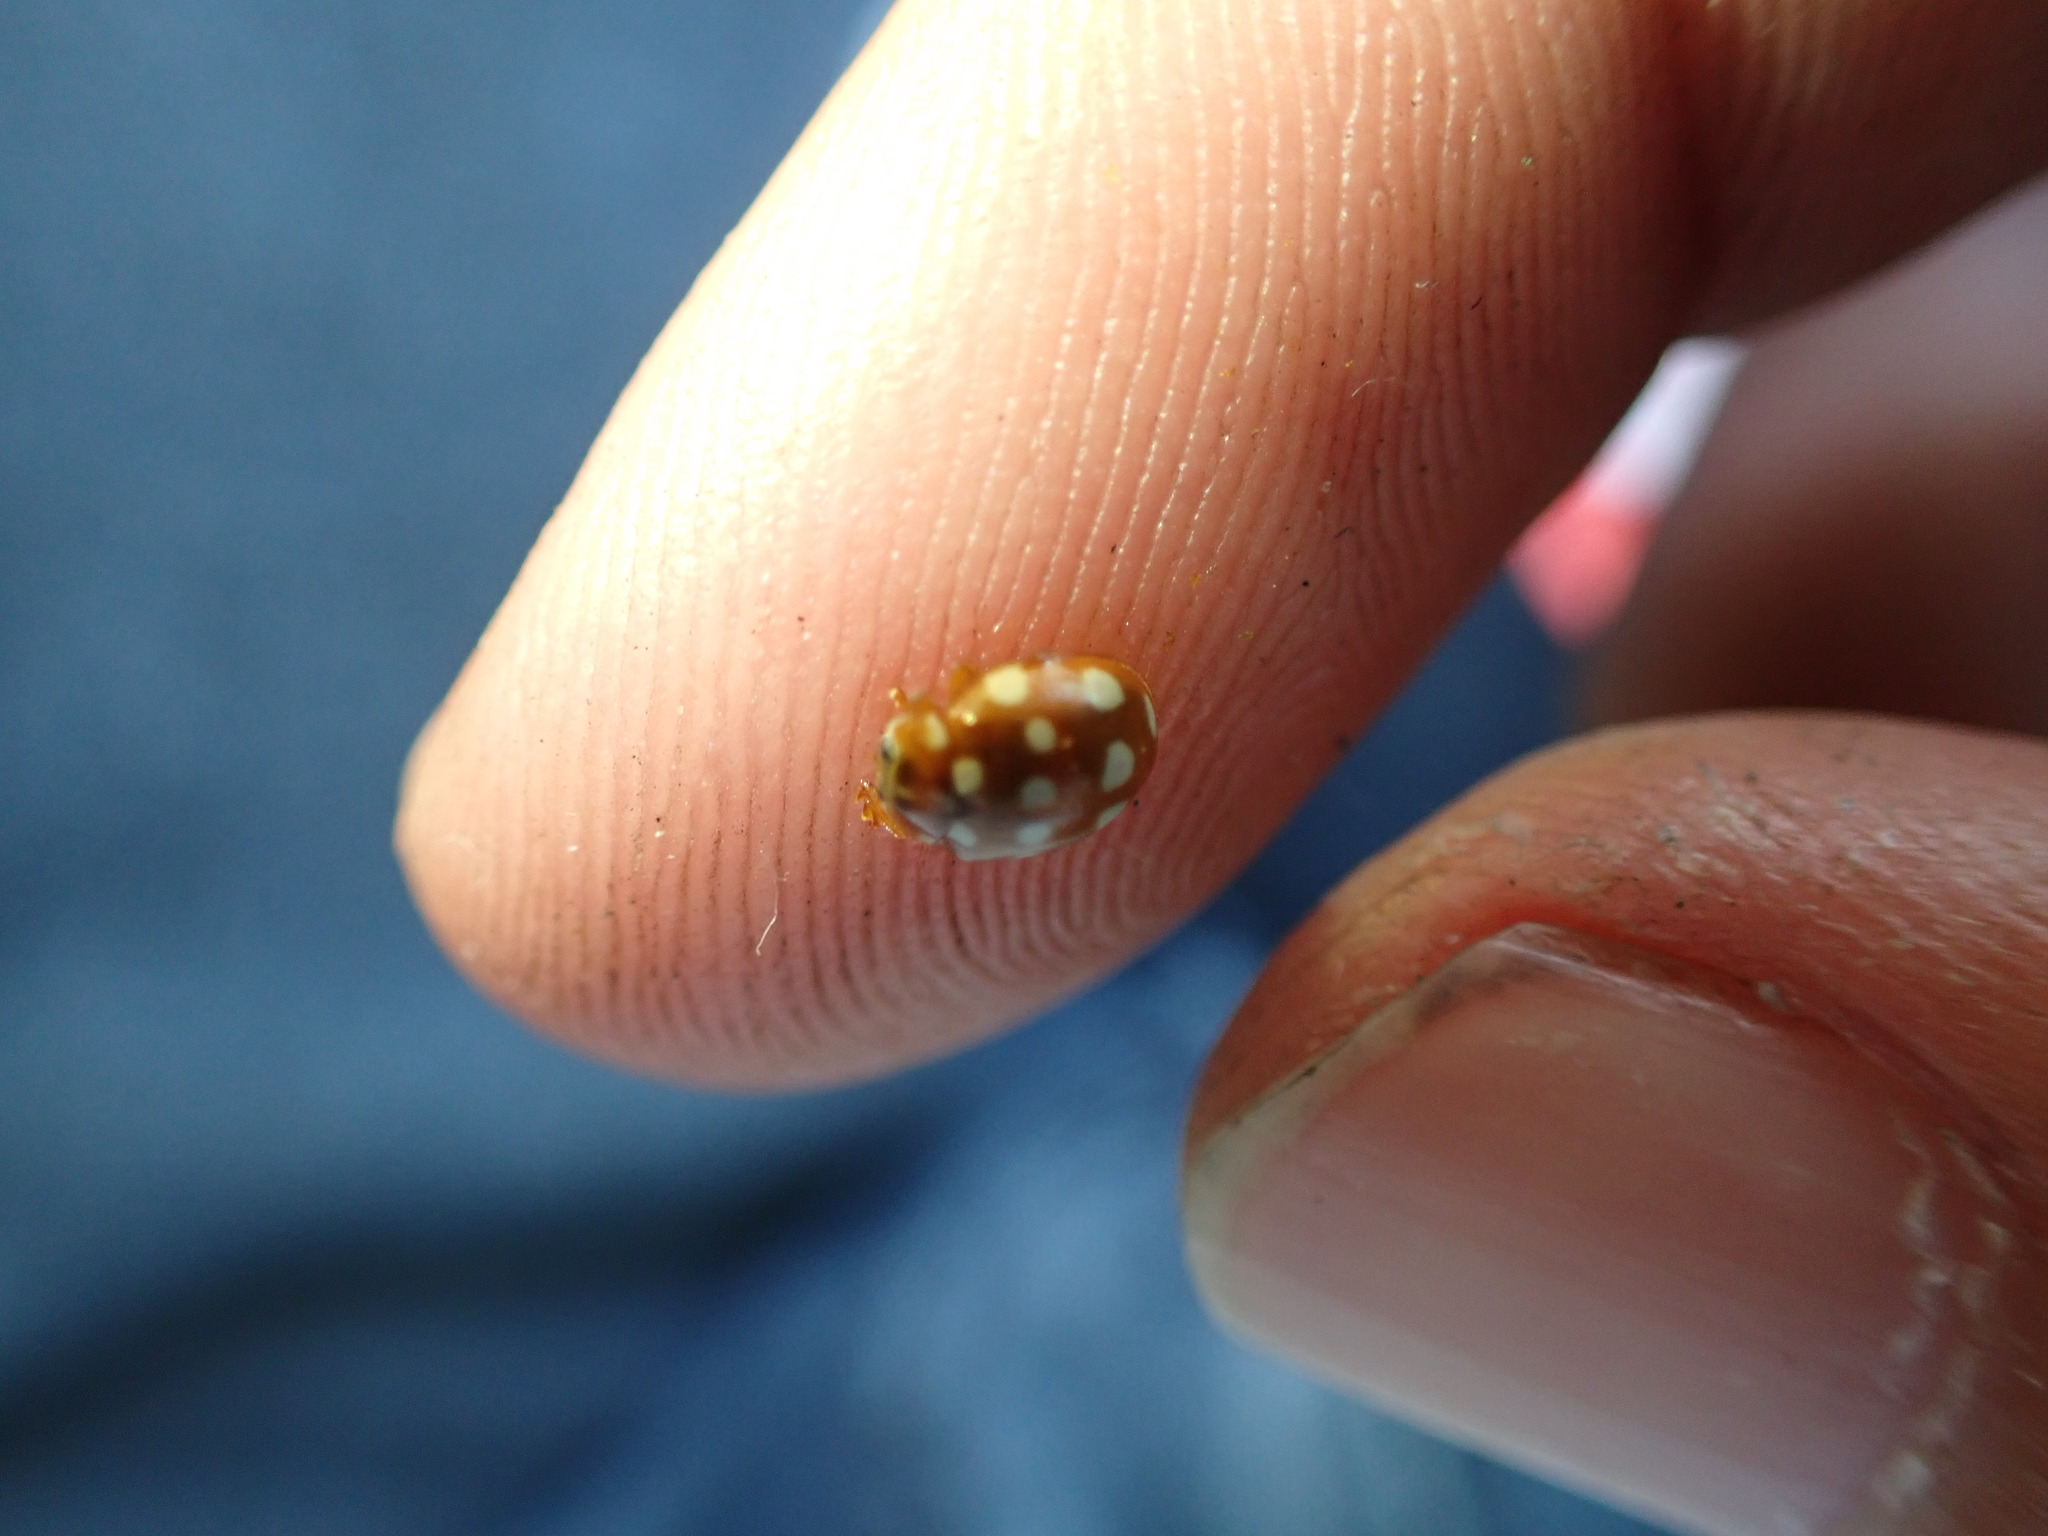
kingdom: Animalia
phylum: Arthropoda
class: Insecta
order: Coleoptera
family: Coccinellidae
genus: Calvia
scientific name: Calvia quatuordecimguttata
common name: Cream-spot ladybird
